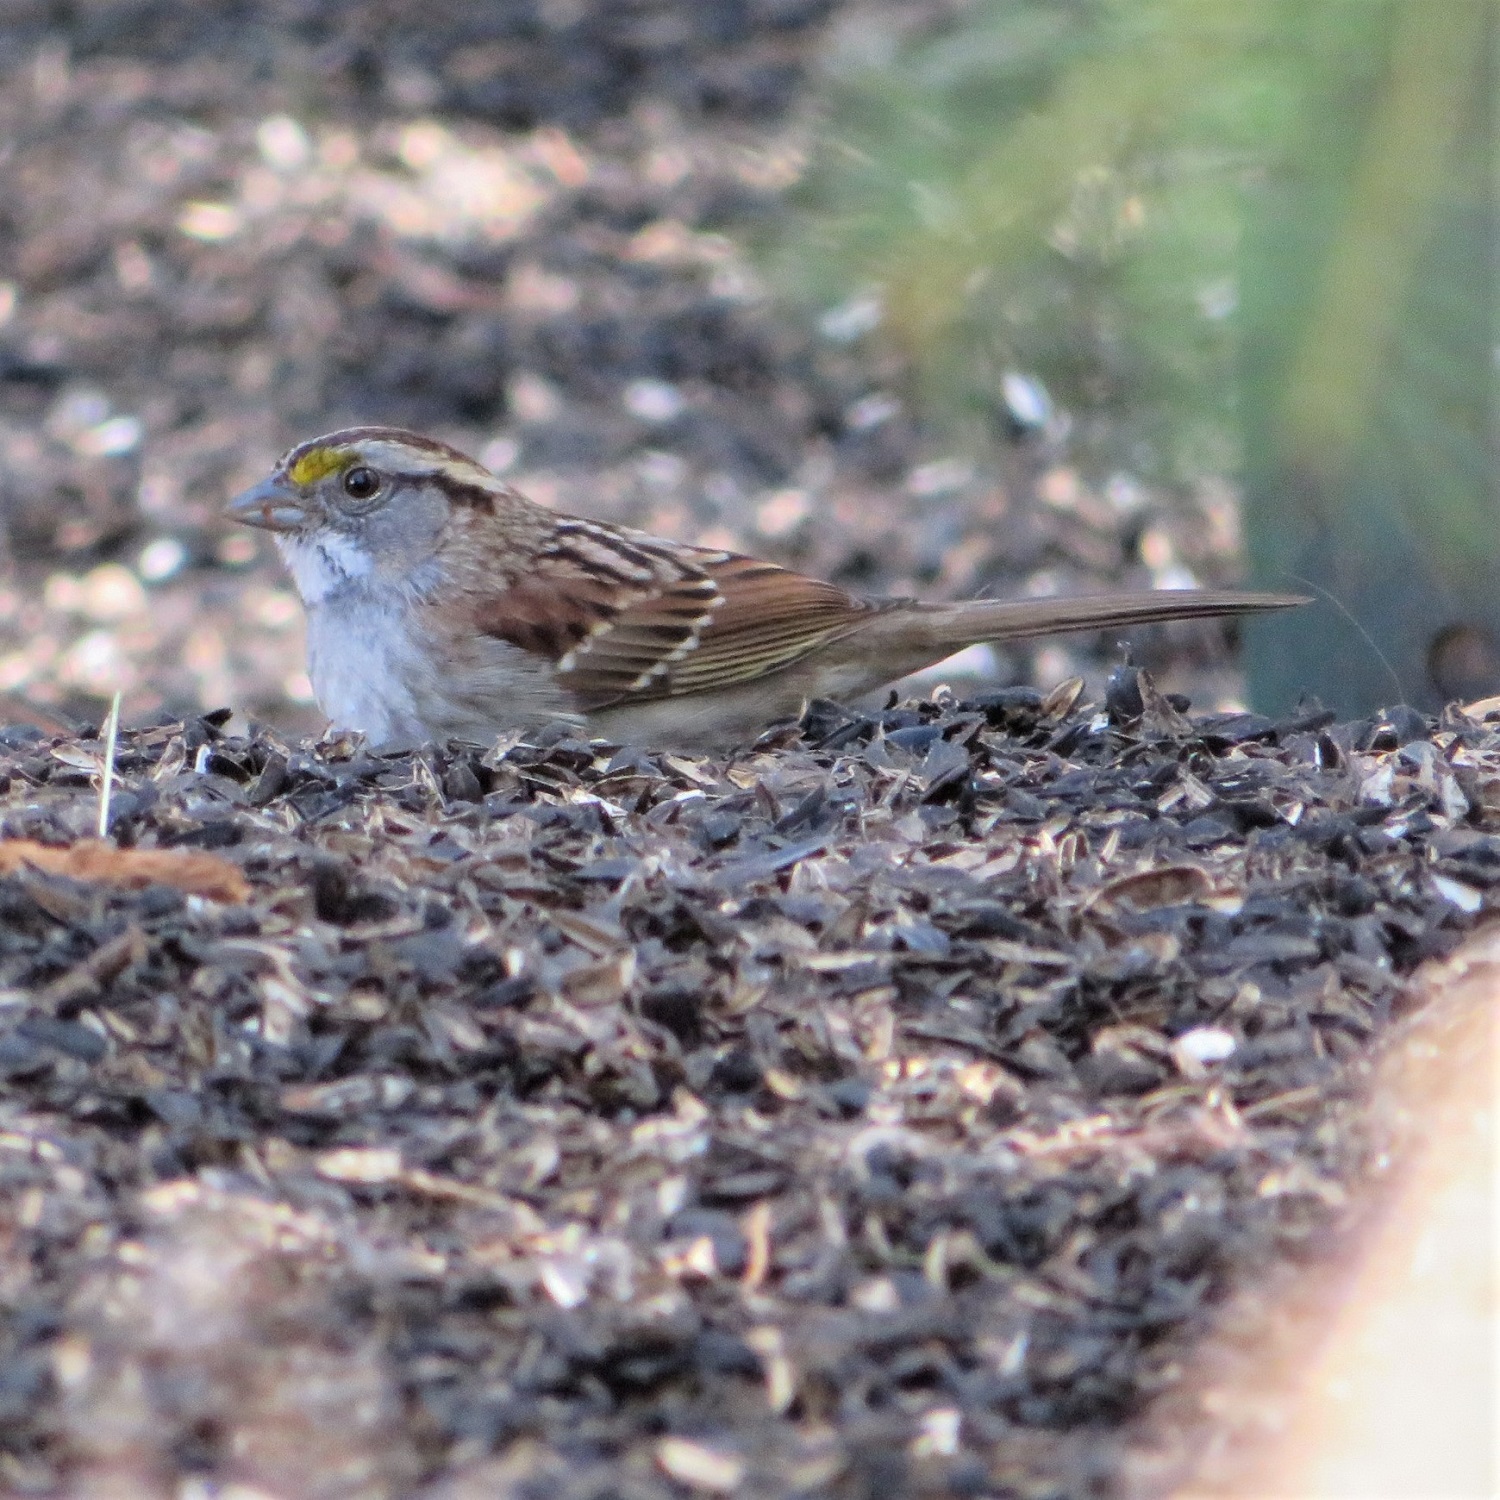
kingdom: Animalia
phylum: Chordata
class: Aves
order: Passeriformes
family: Passerellidae
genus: Zonotrichia
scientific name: Zonotrichia albicollis
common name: White-throated sparrow
